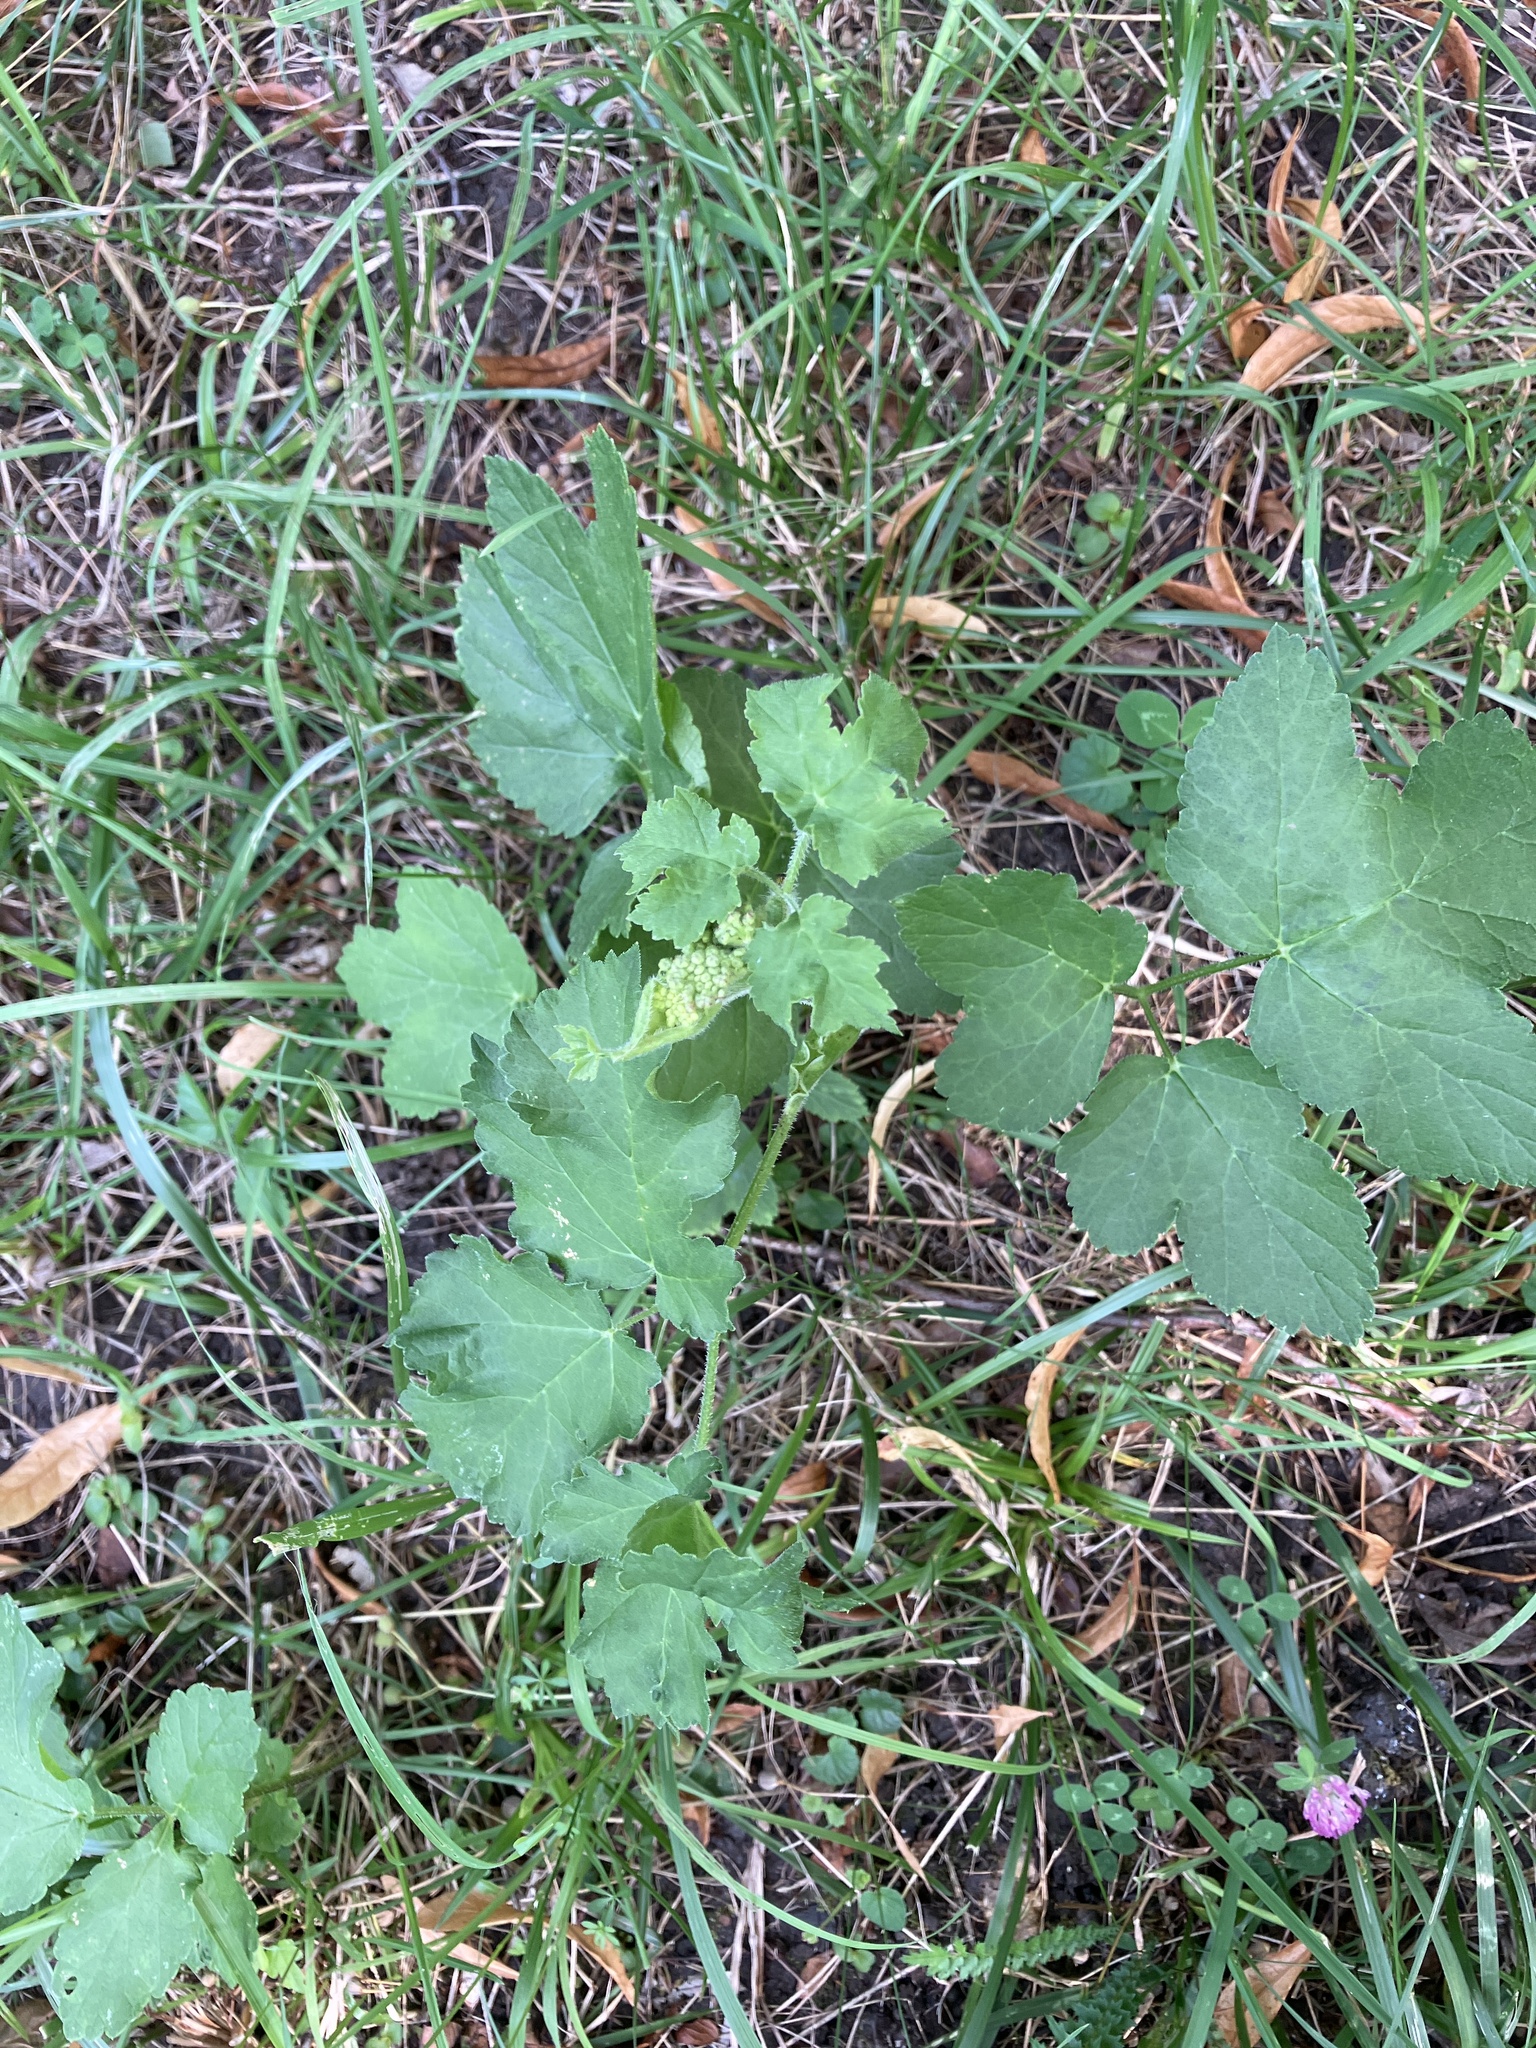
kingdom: Plantae
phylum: Tracheophyta
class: Magnoliopsida
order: Apiales
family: Apiaceae
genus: Heracleum
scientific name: Heracleum sphondylium
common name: Hogweed
